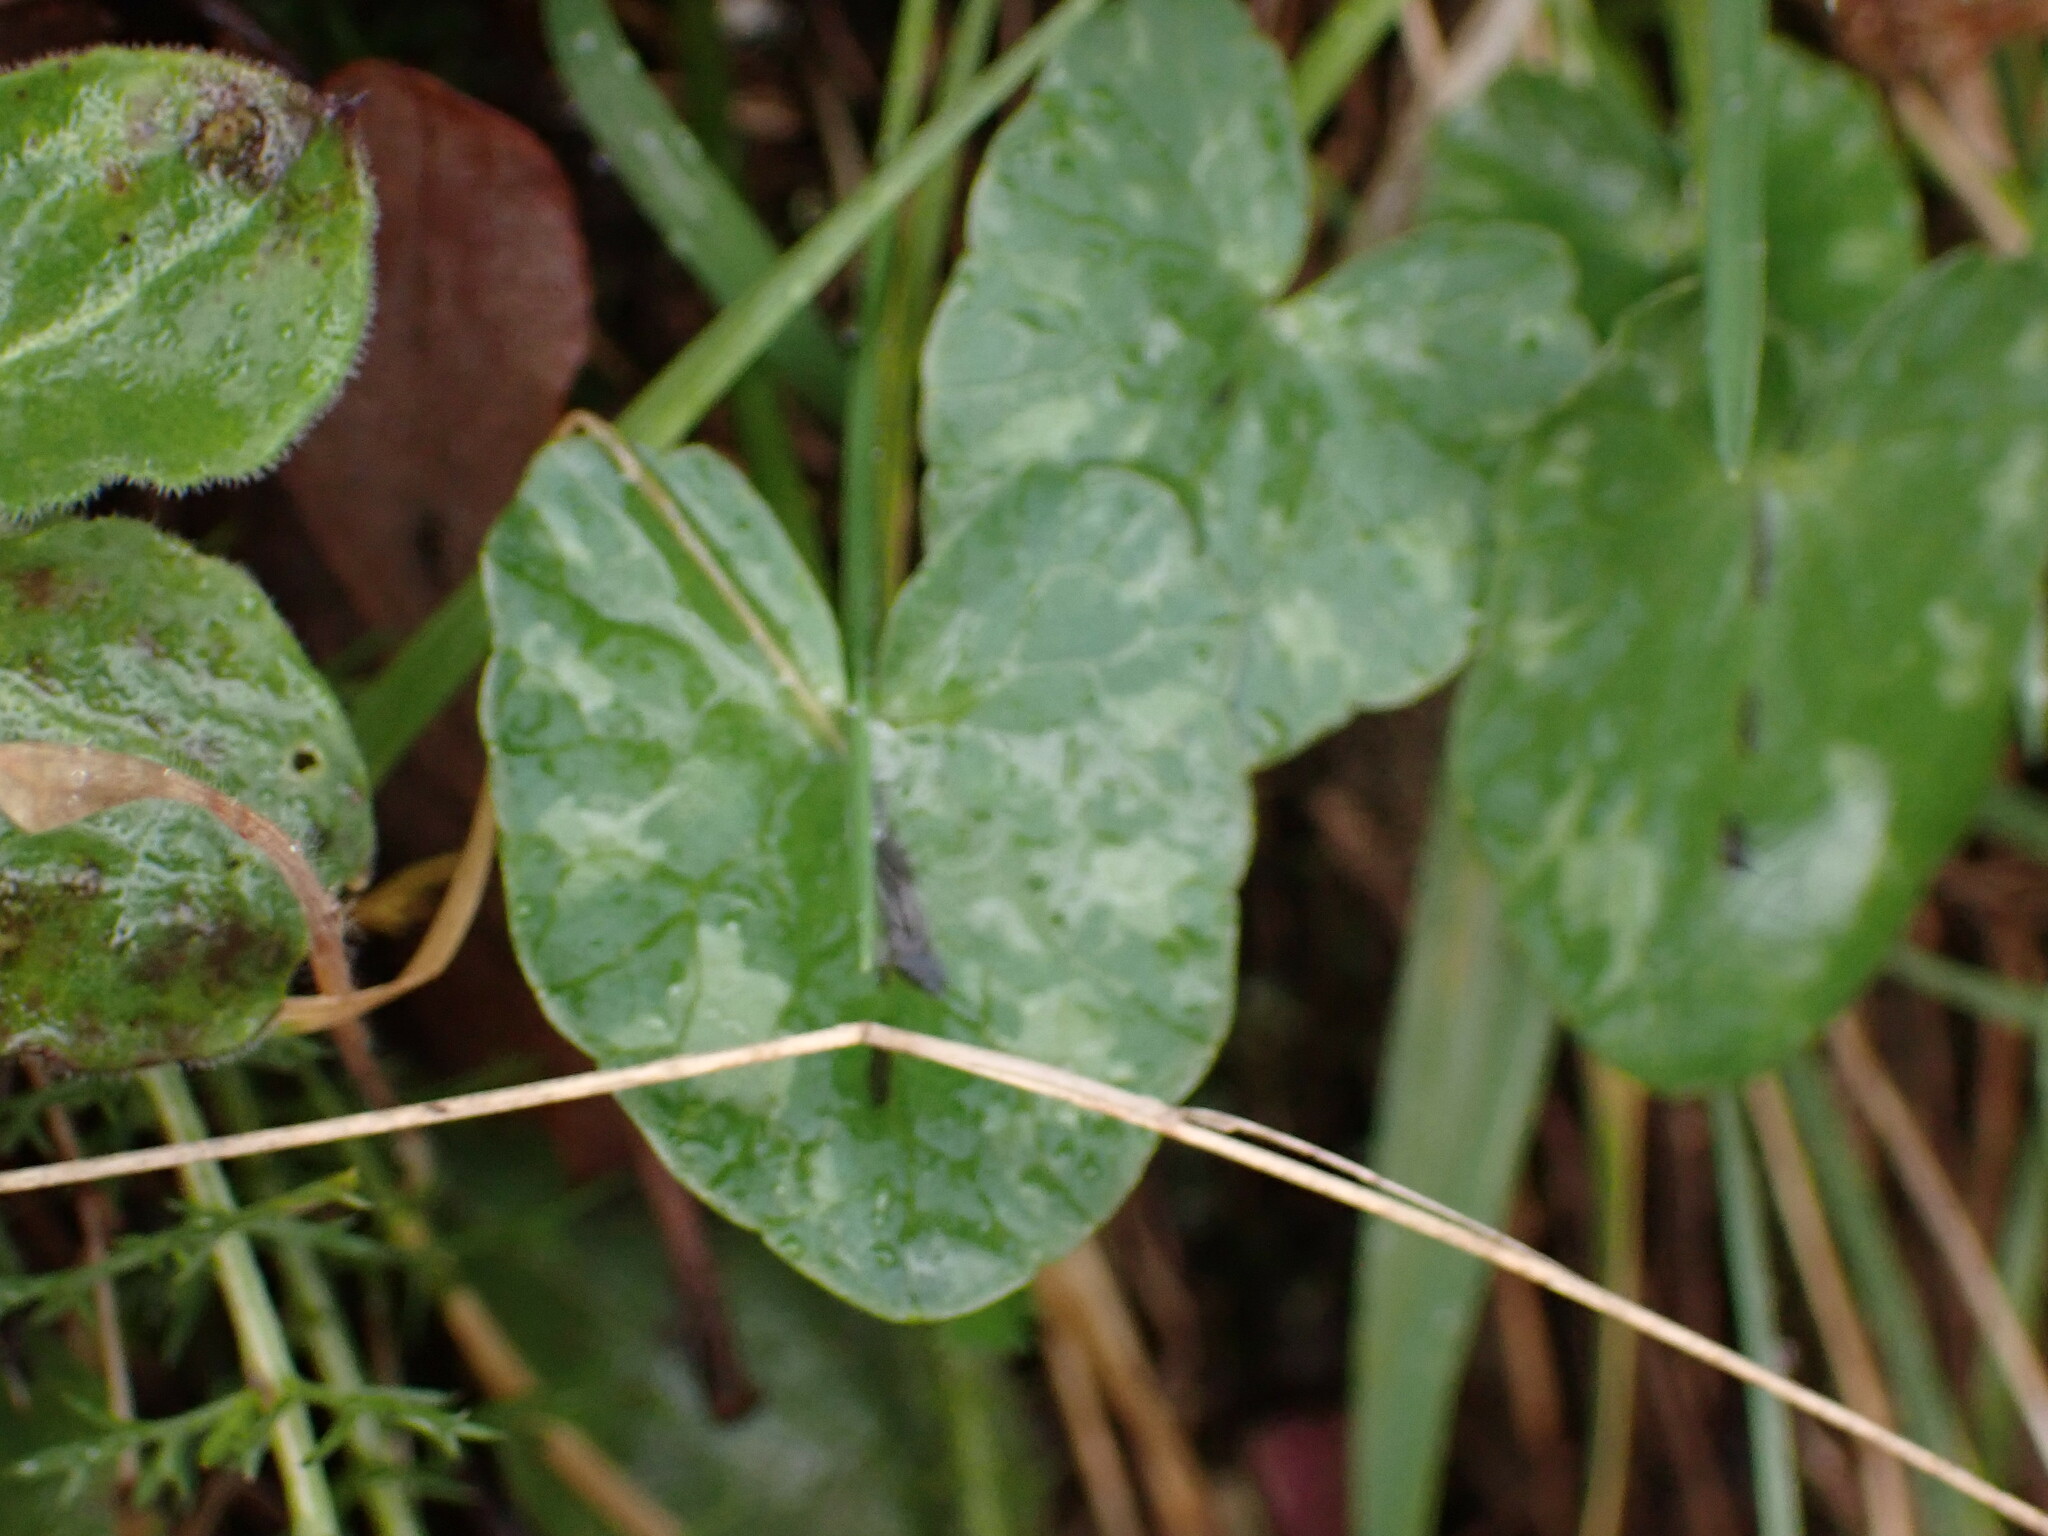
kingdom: Plantae
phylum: Tracheophyta
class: Magnoliopsida
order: Ranunculales
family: Ranunculaceae
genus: Ficaria
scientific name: Ficaria verna
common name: Lesser celandine
